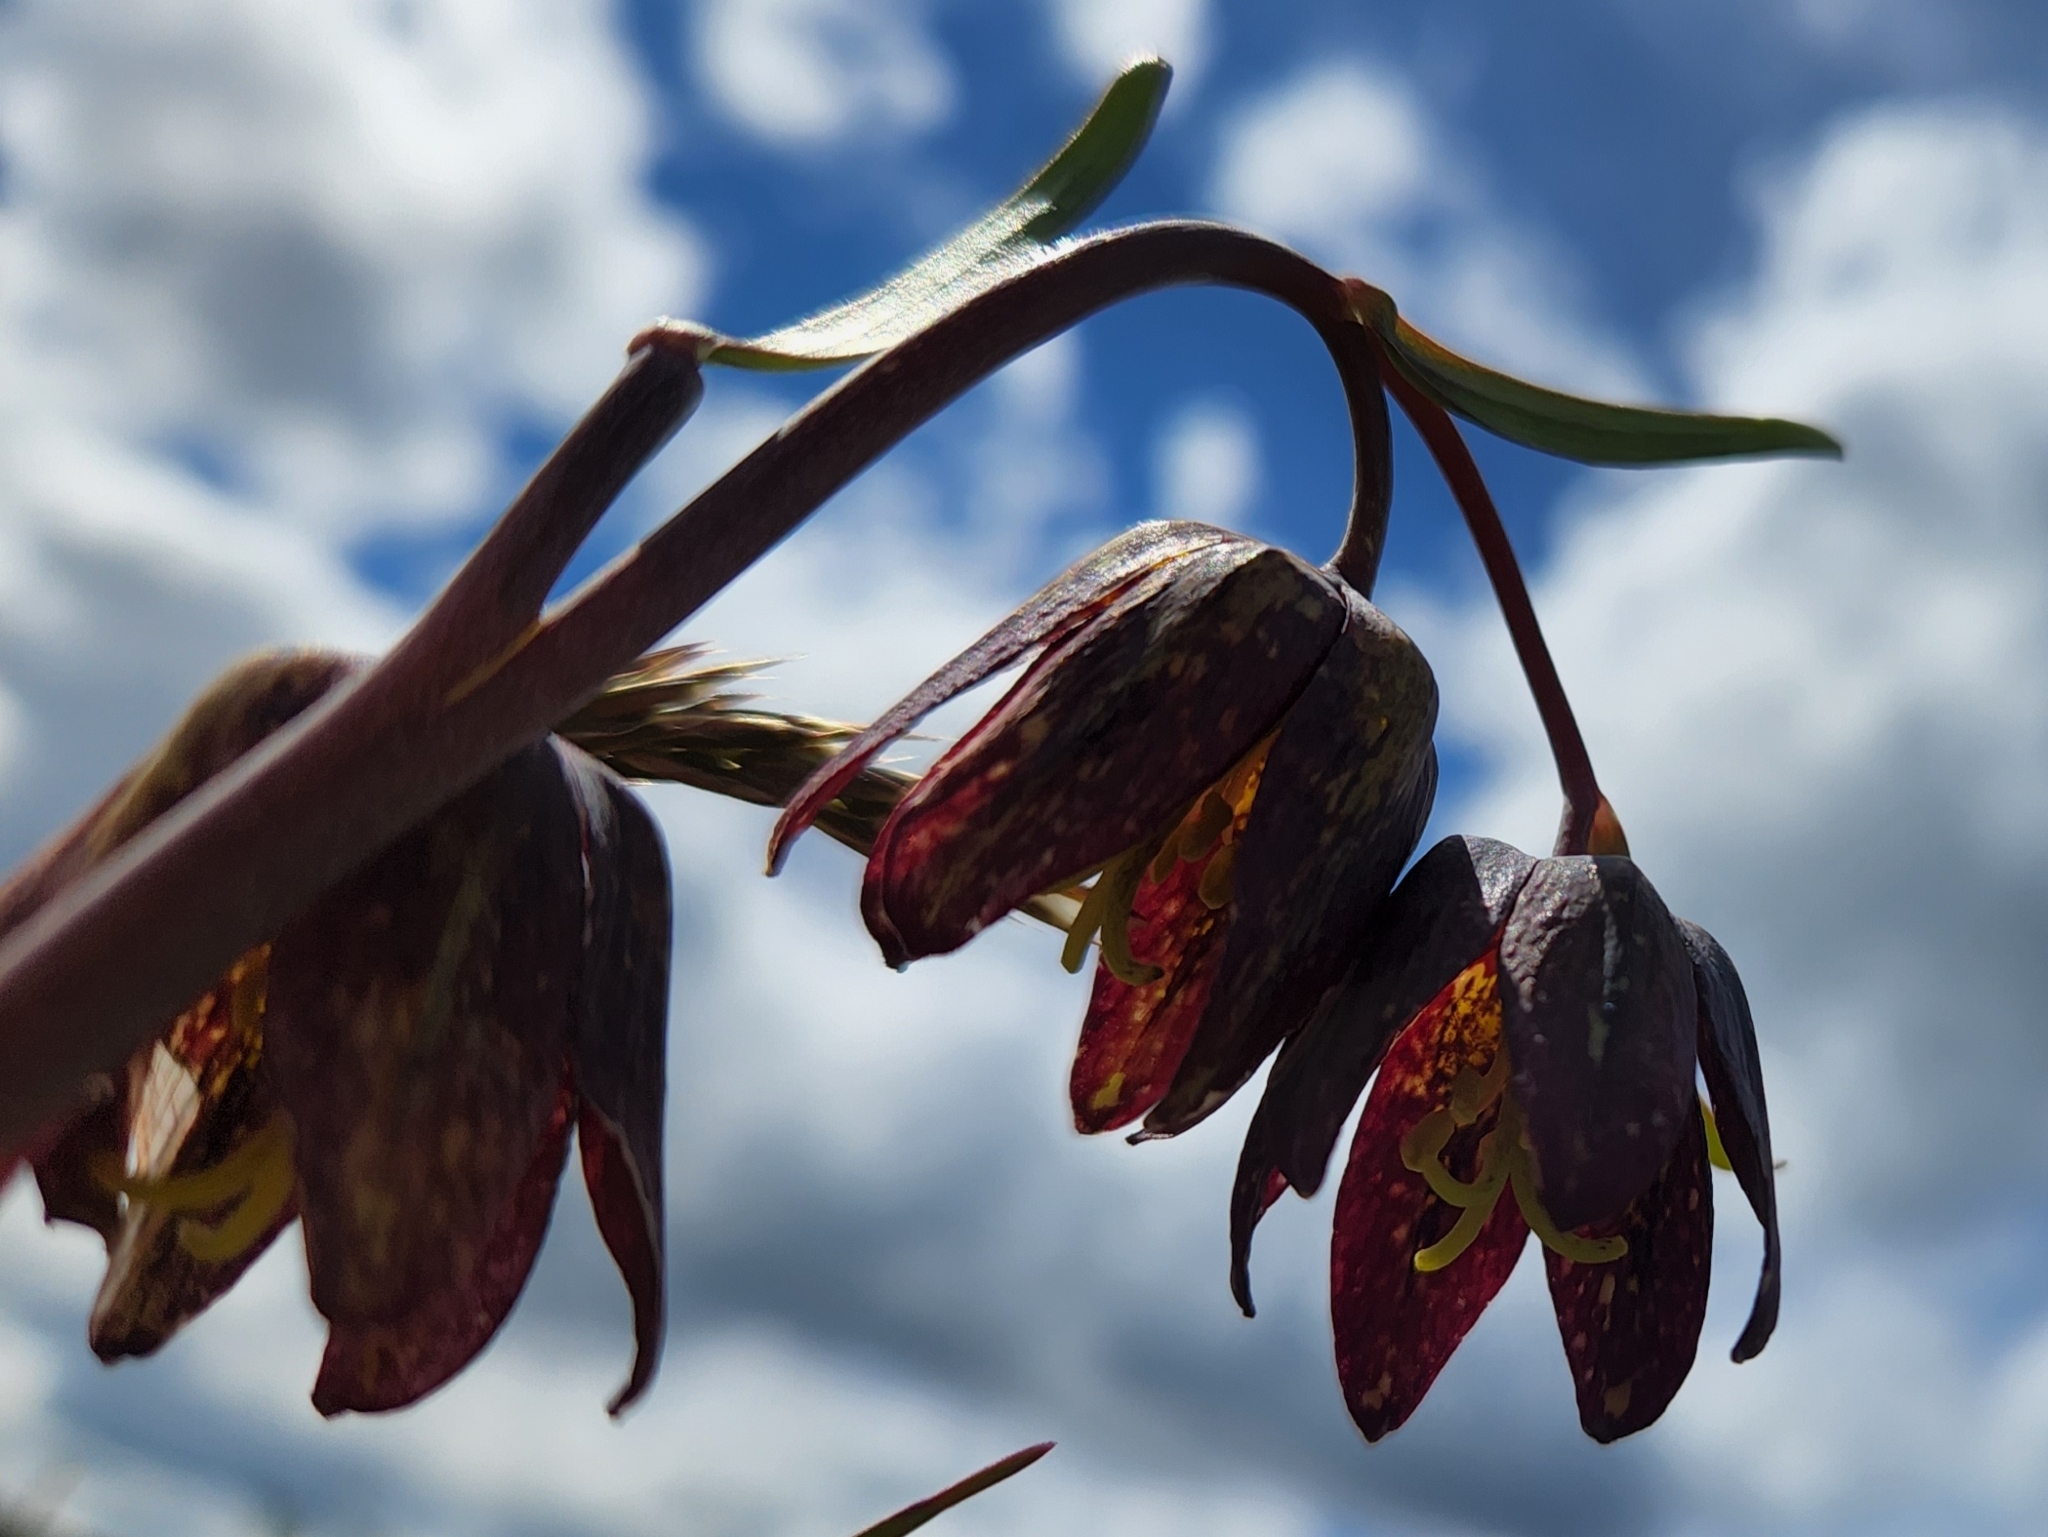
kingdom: Plantae
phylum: Tracheophyta
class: Liliopsida
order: Liliales
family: Liliaceae
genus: Fritillaria
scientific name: Fritillaria affinis
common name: Ojai fritillary
